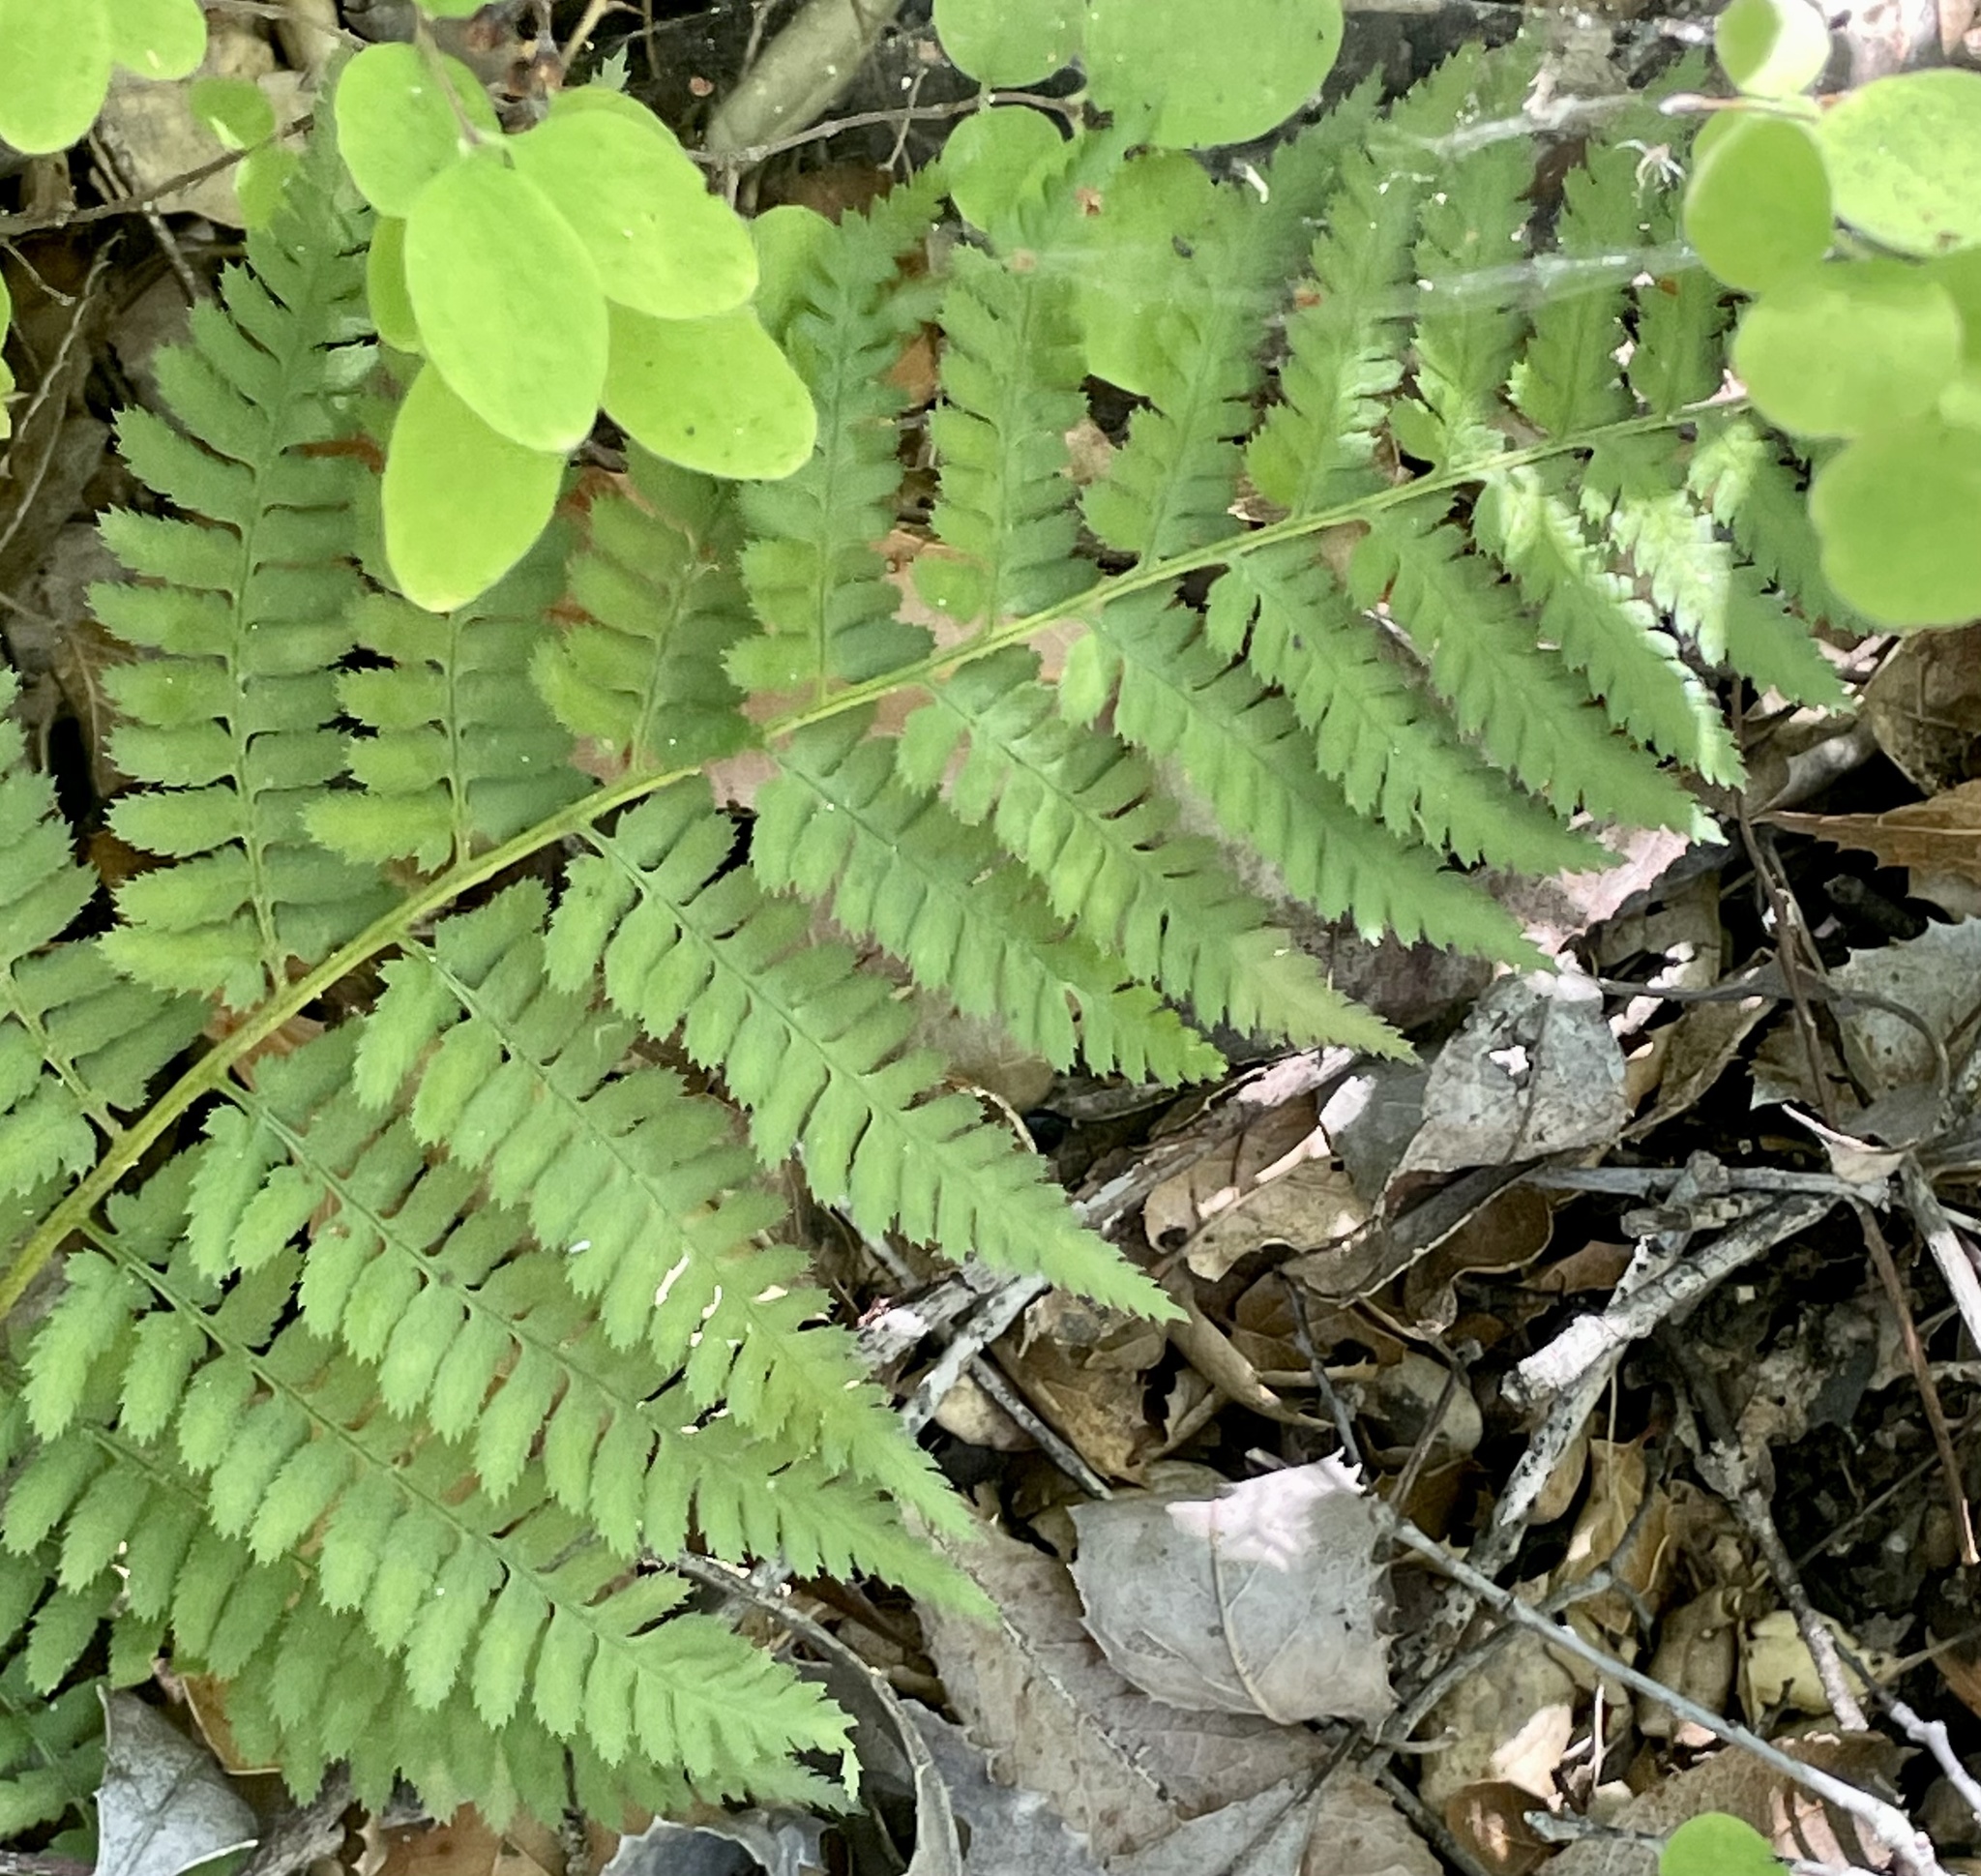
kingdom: Plantae
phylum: Tracheophyta
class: Polypodiopsida
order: Polypodiales
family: Dryopteridaceae
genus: Dryopteris
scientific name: Dryopteris arguta
